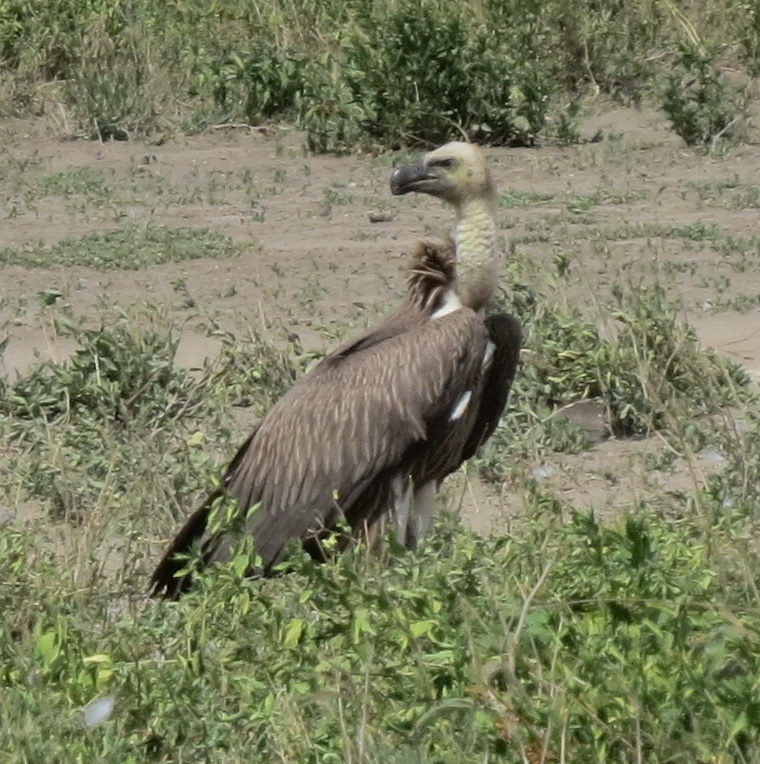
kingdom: Animalia
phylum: Chordata
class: Aves
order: Accipitriformes
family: Accipitridae
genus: Gyps
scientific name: Gyps africanus
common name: White-backed vulture
